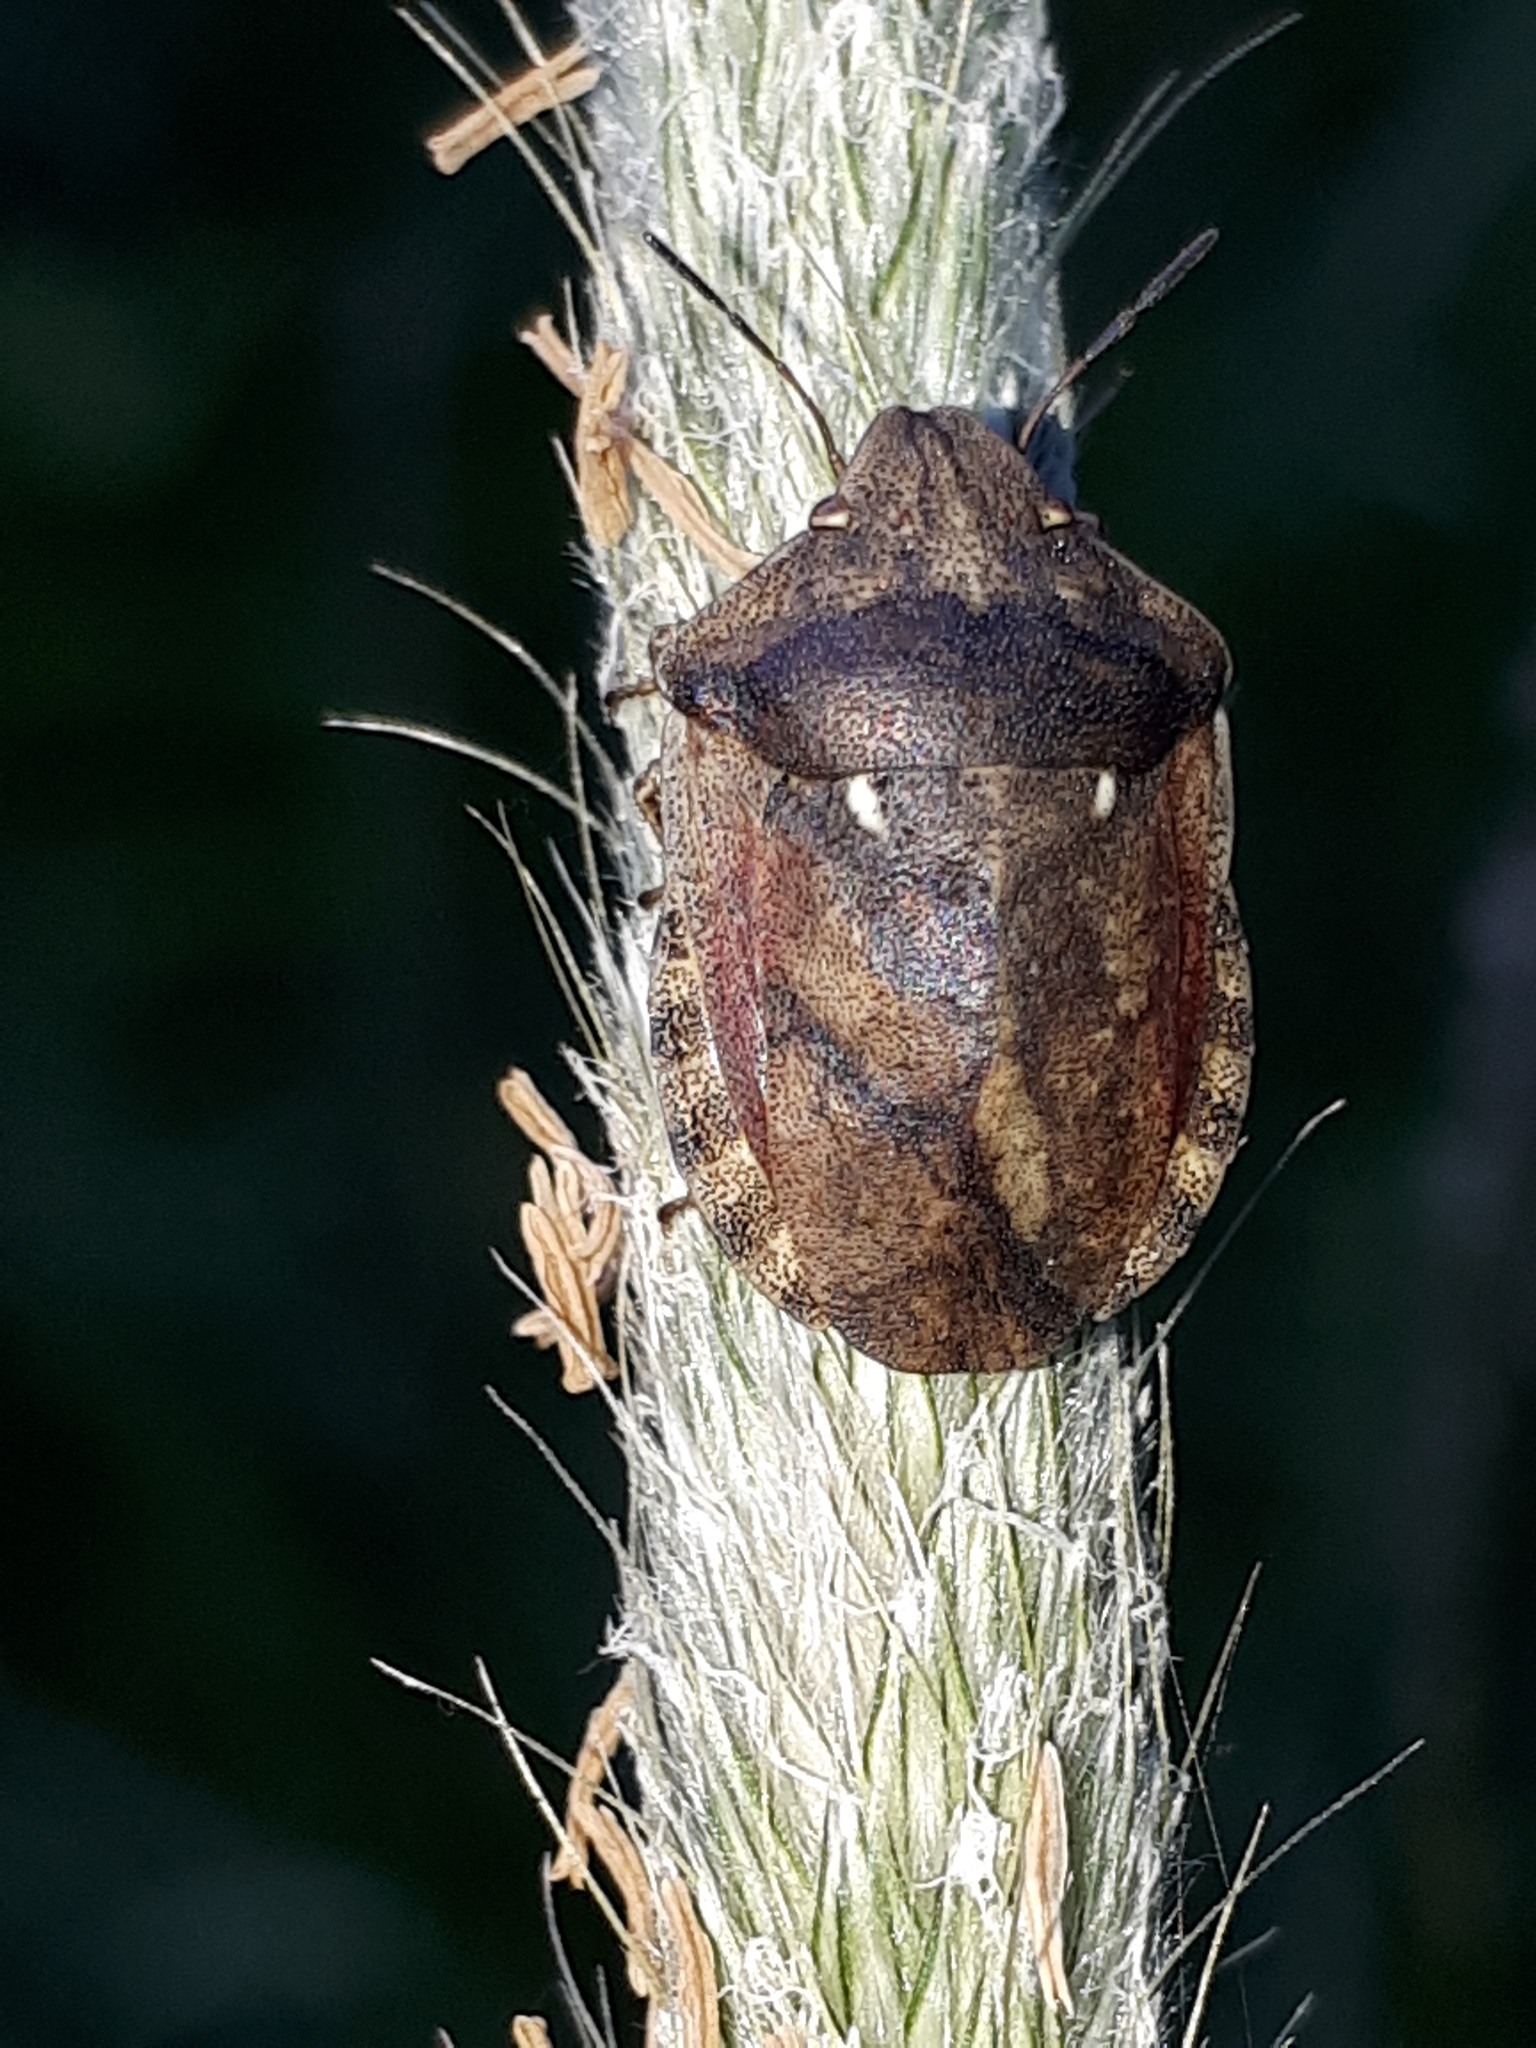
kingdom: Animalia
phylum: Arthropoda
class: Insecta
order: Hemiptera
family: Scutelleridae
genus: Eurygaster
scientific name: Eurygaster testudinaria
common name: Tortoise bug
